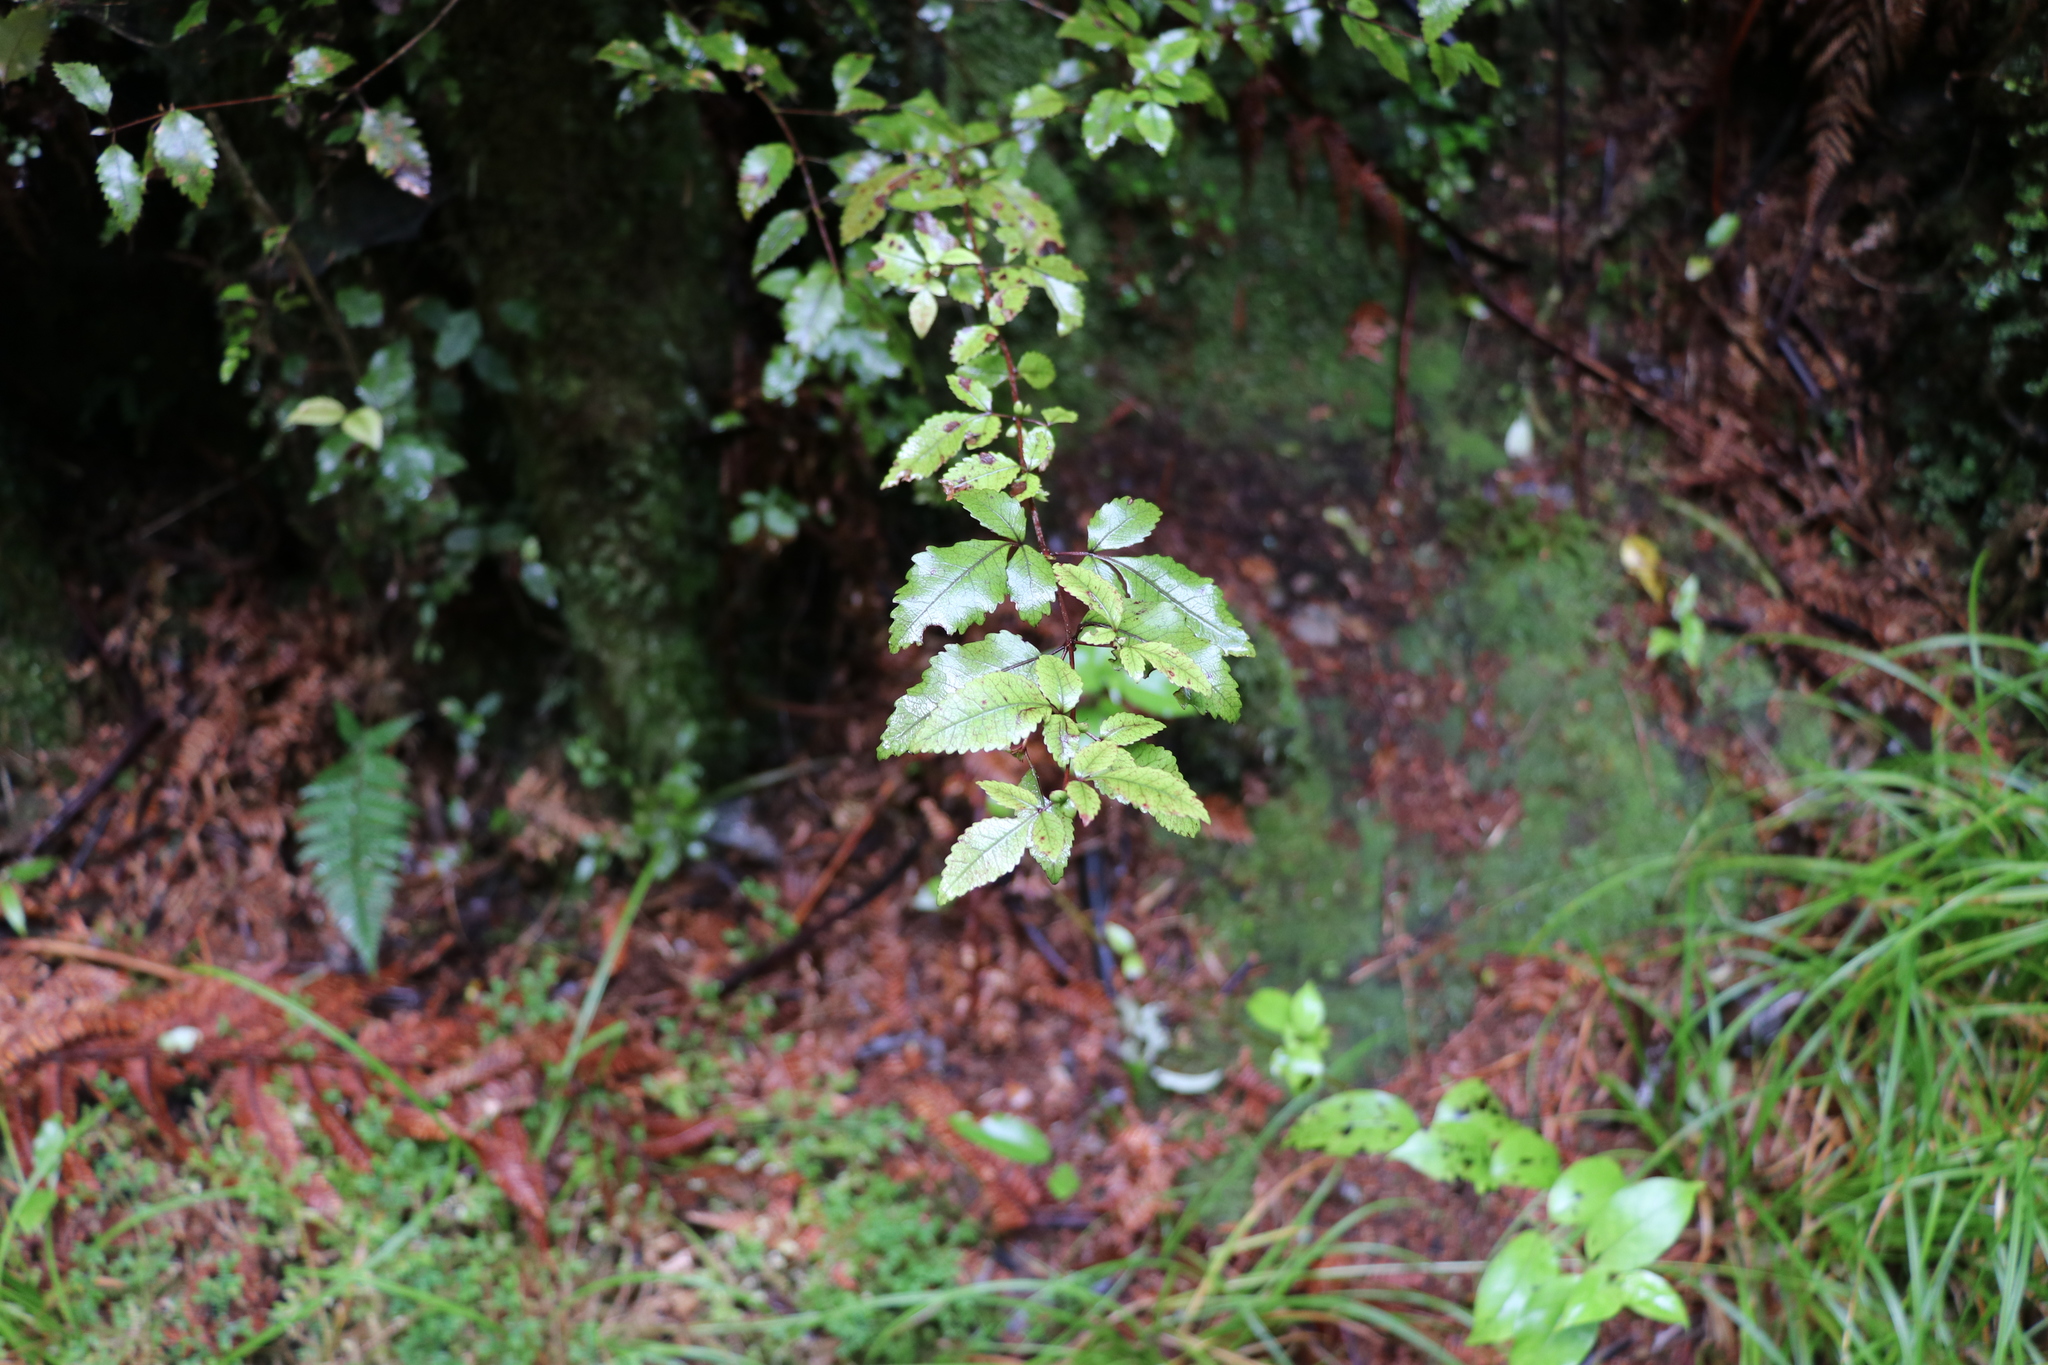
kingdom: Plantae
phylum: Tracheophyta
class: Magnoliopsida
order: Oxalidales
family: Cunoniaceae
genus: Pterophylla
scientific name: Pterophylla racemosa
